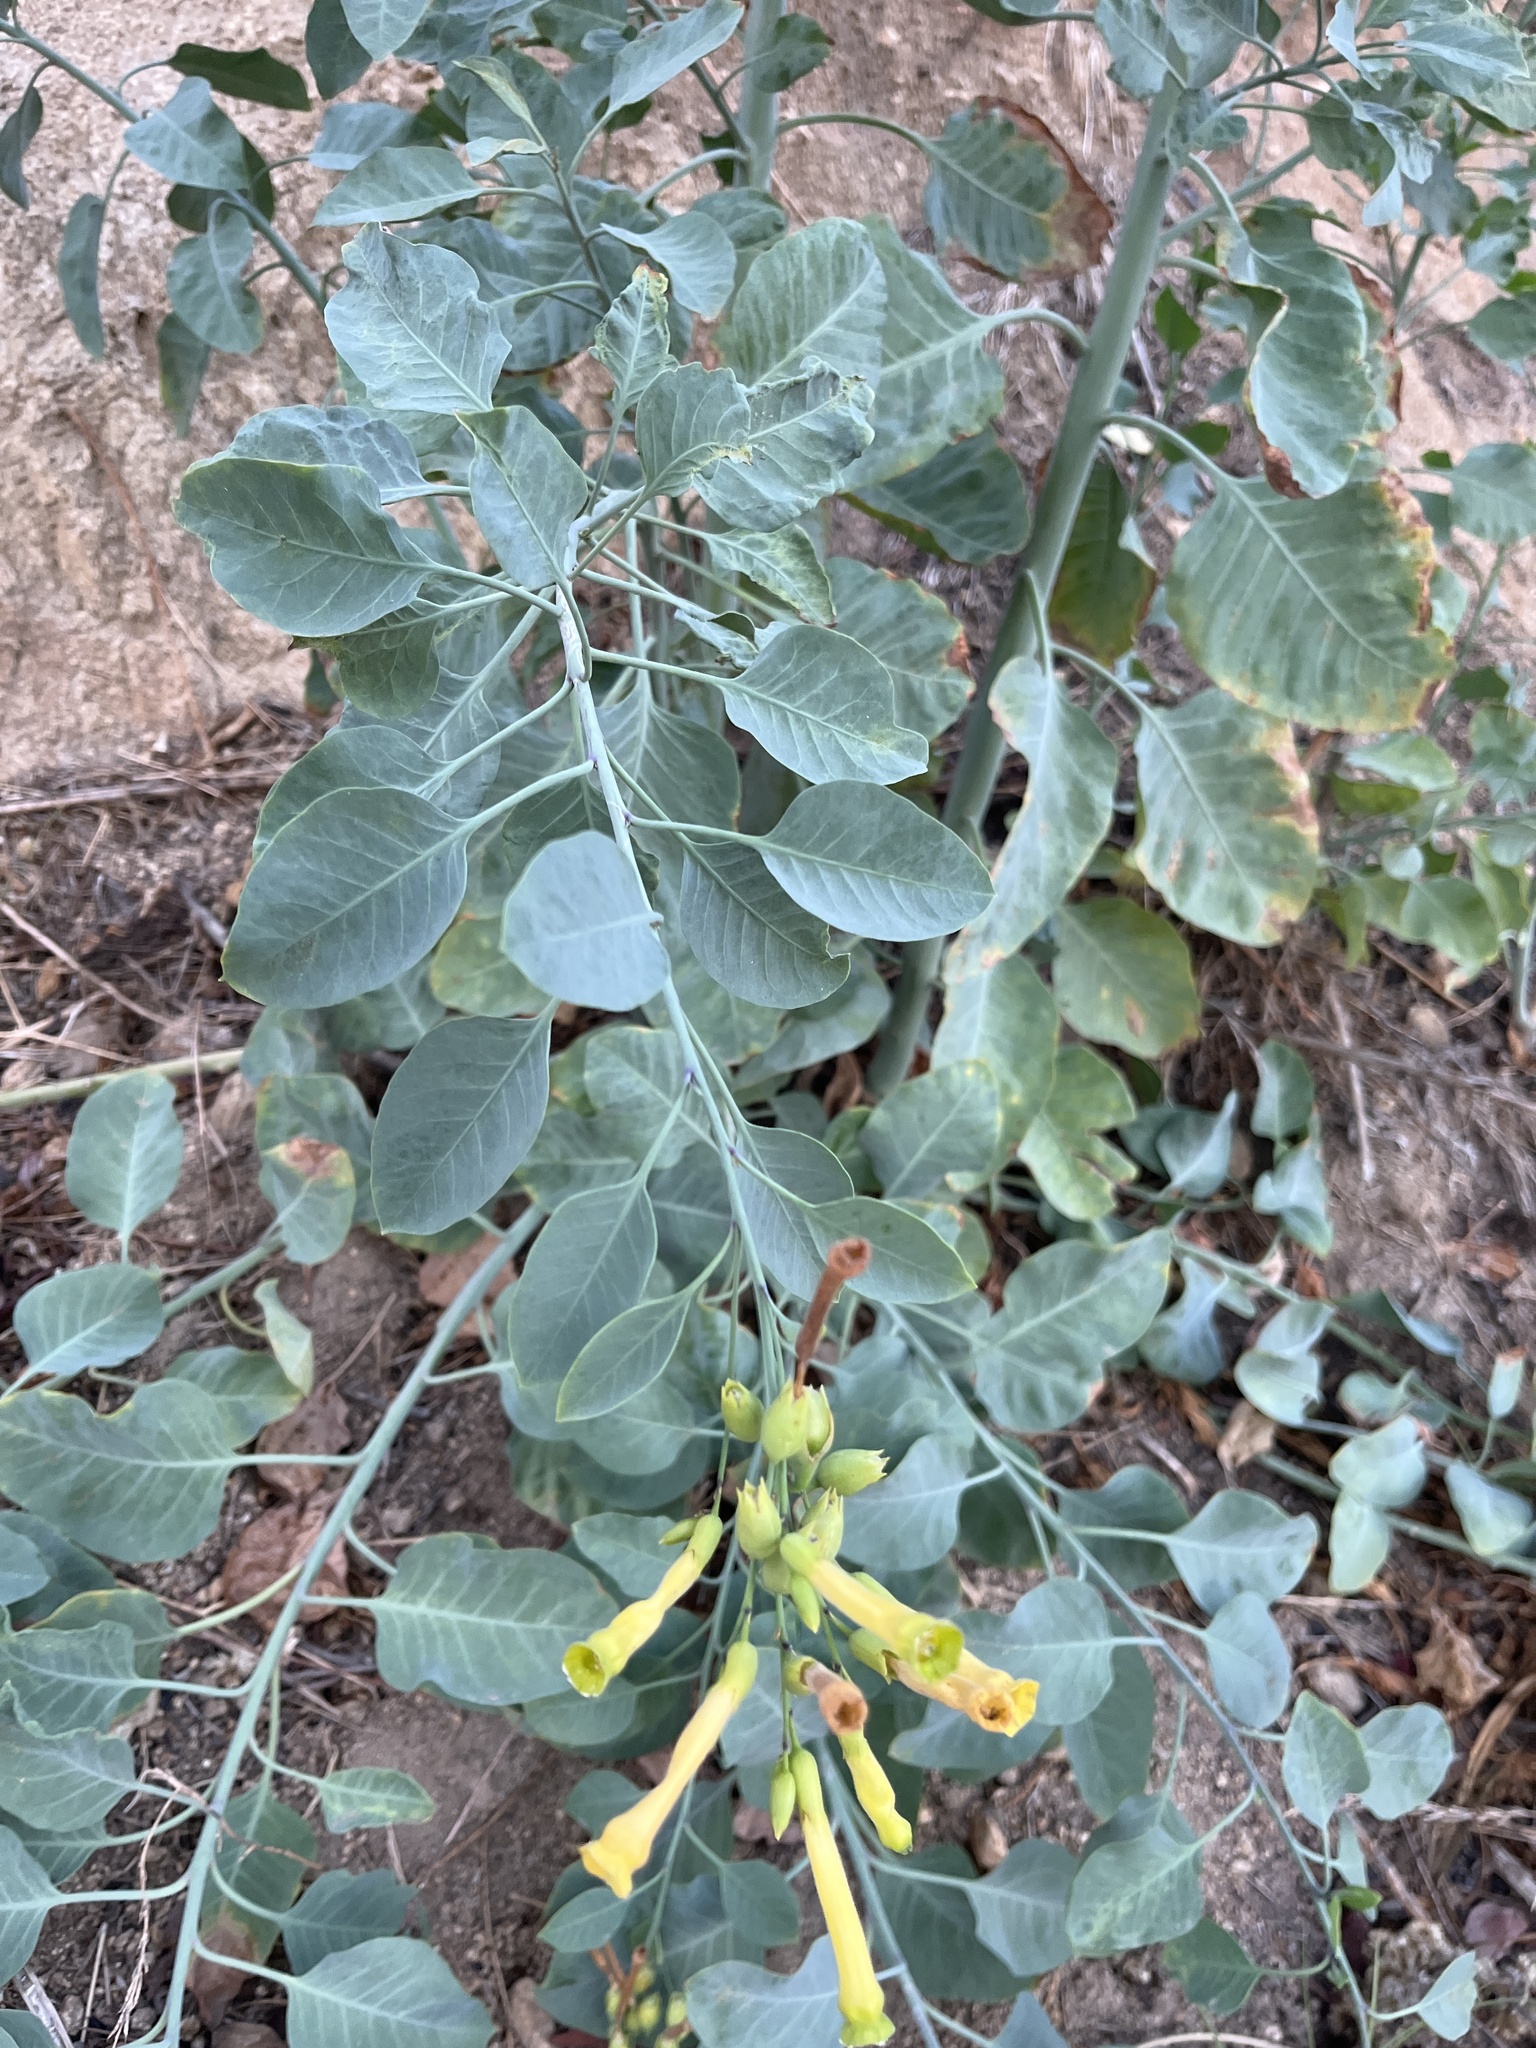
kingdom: Plantae
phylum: Tracheophyta
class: Magnoliopsida
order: Solanales
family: Solanaceae
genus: Nicotiana
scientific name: Nicotiana glauca
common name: Tree tobacco
